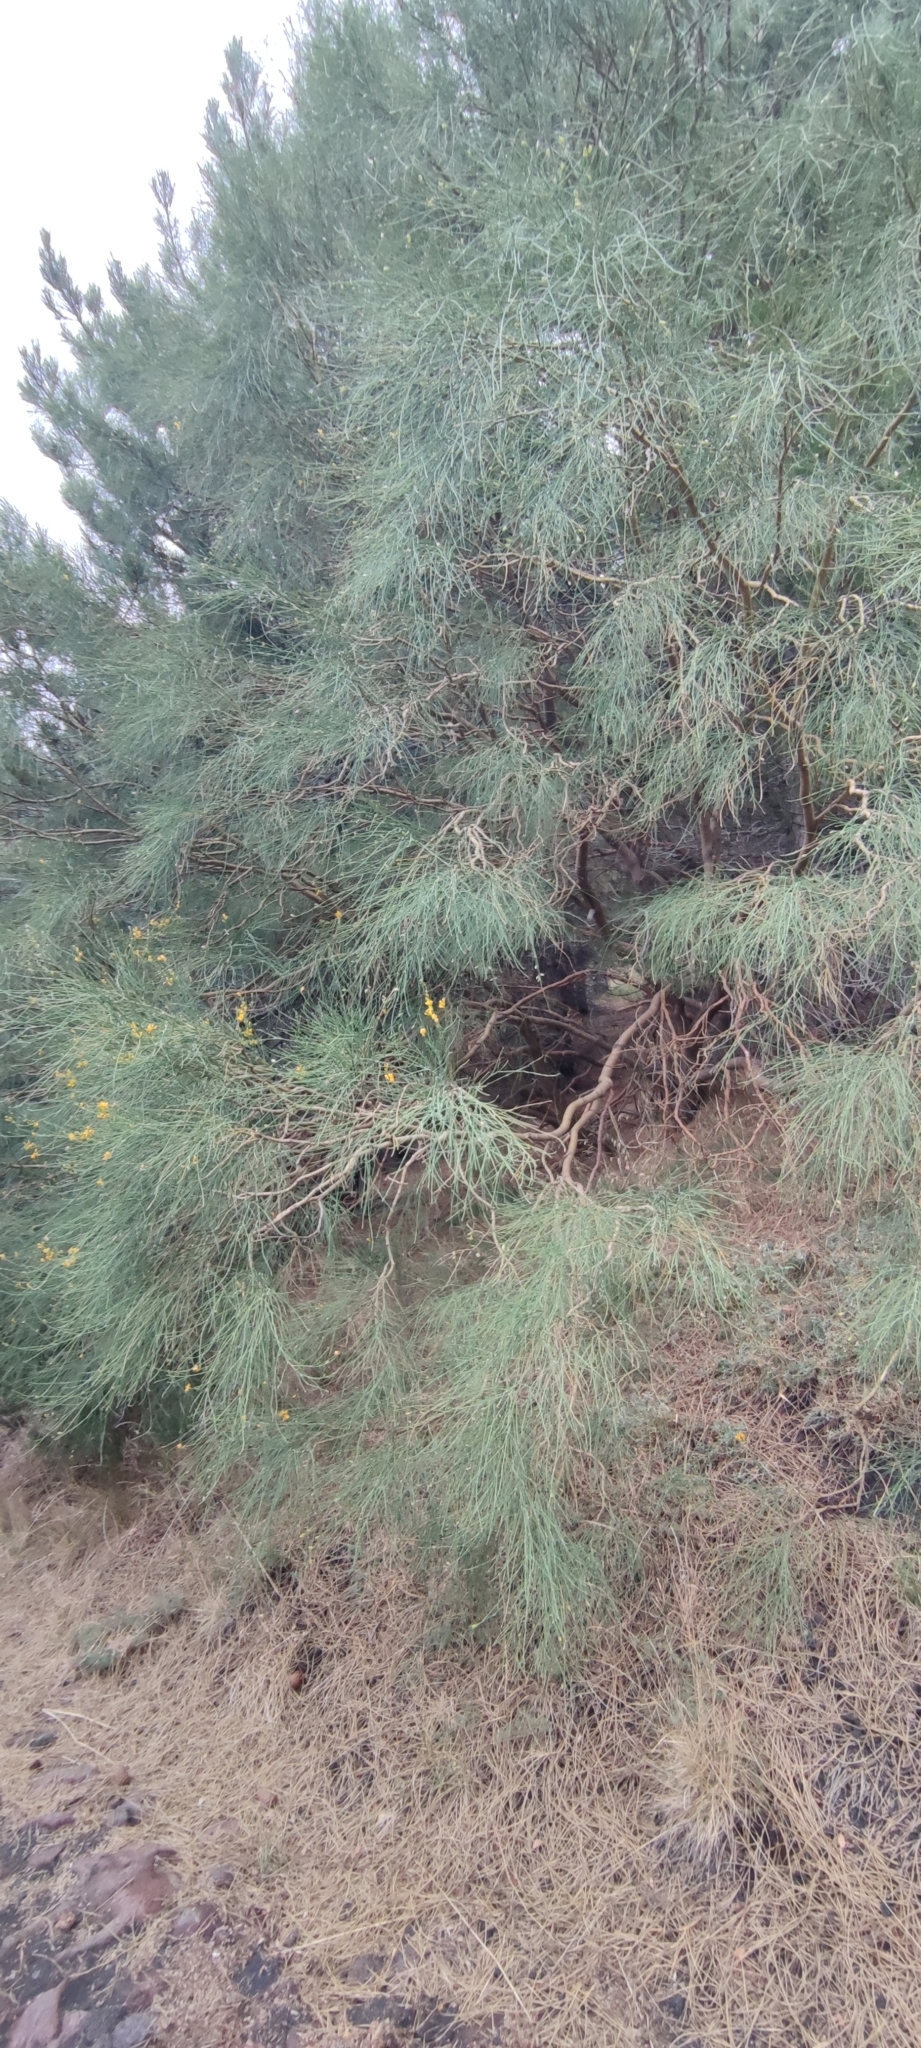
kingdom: Plantae
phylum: Tracheophyta
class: Magnoliopsida
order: Fabales
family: Fabaceae
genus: Genista
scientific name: Genista aetnensis
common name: Mount etna broom
